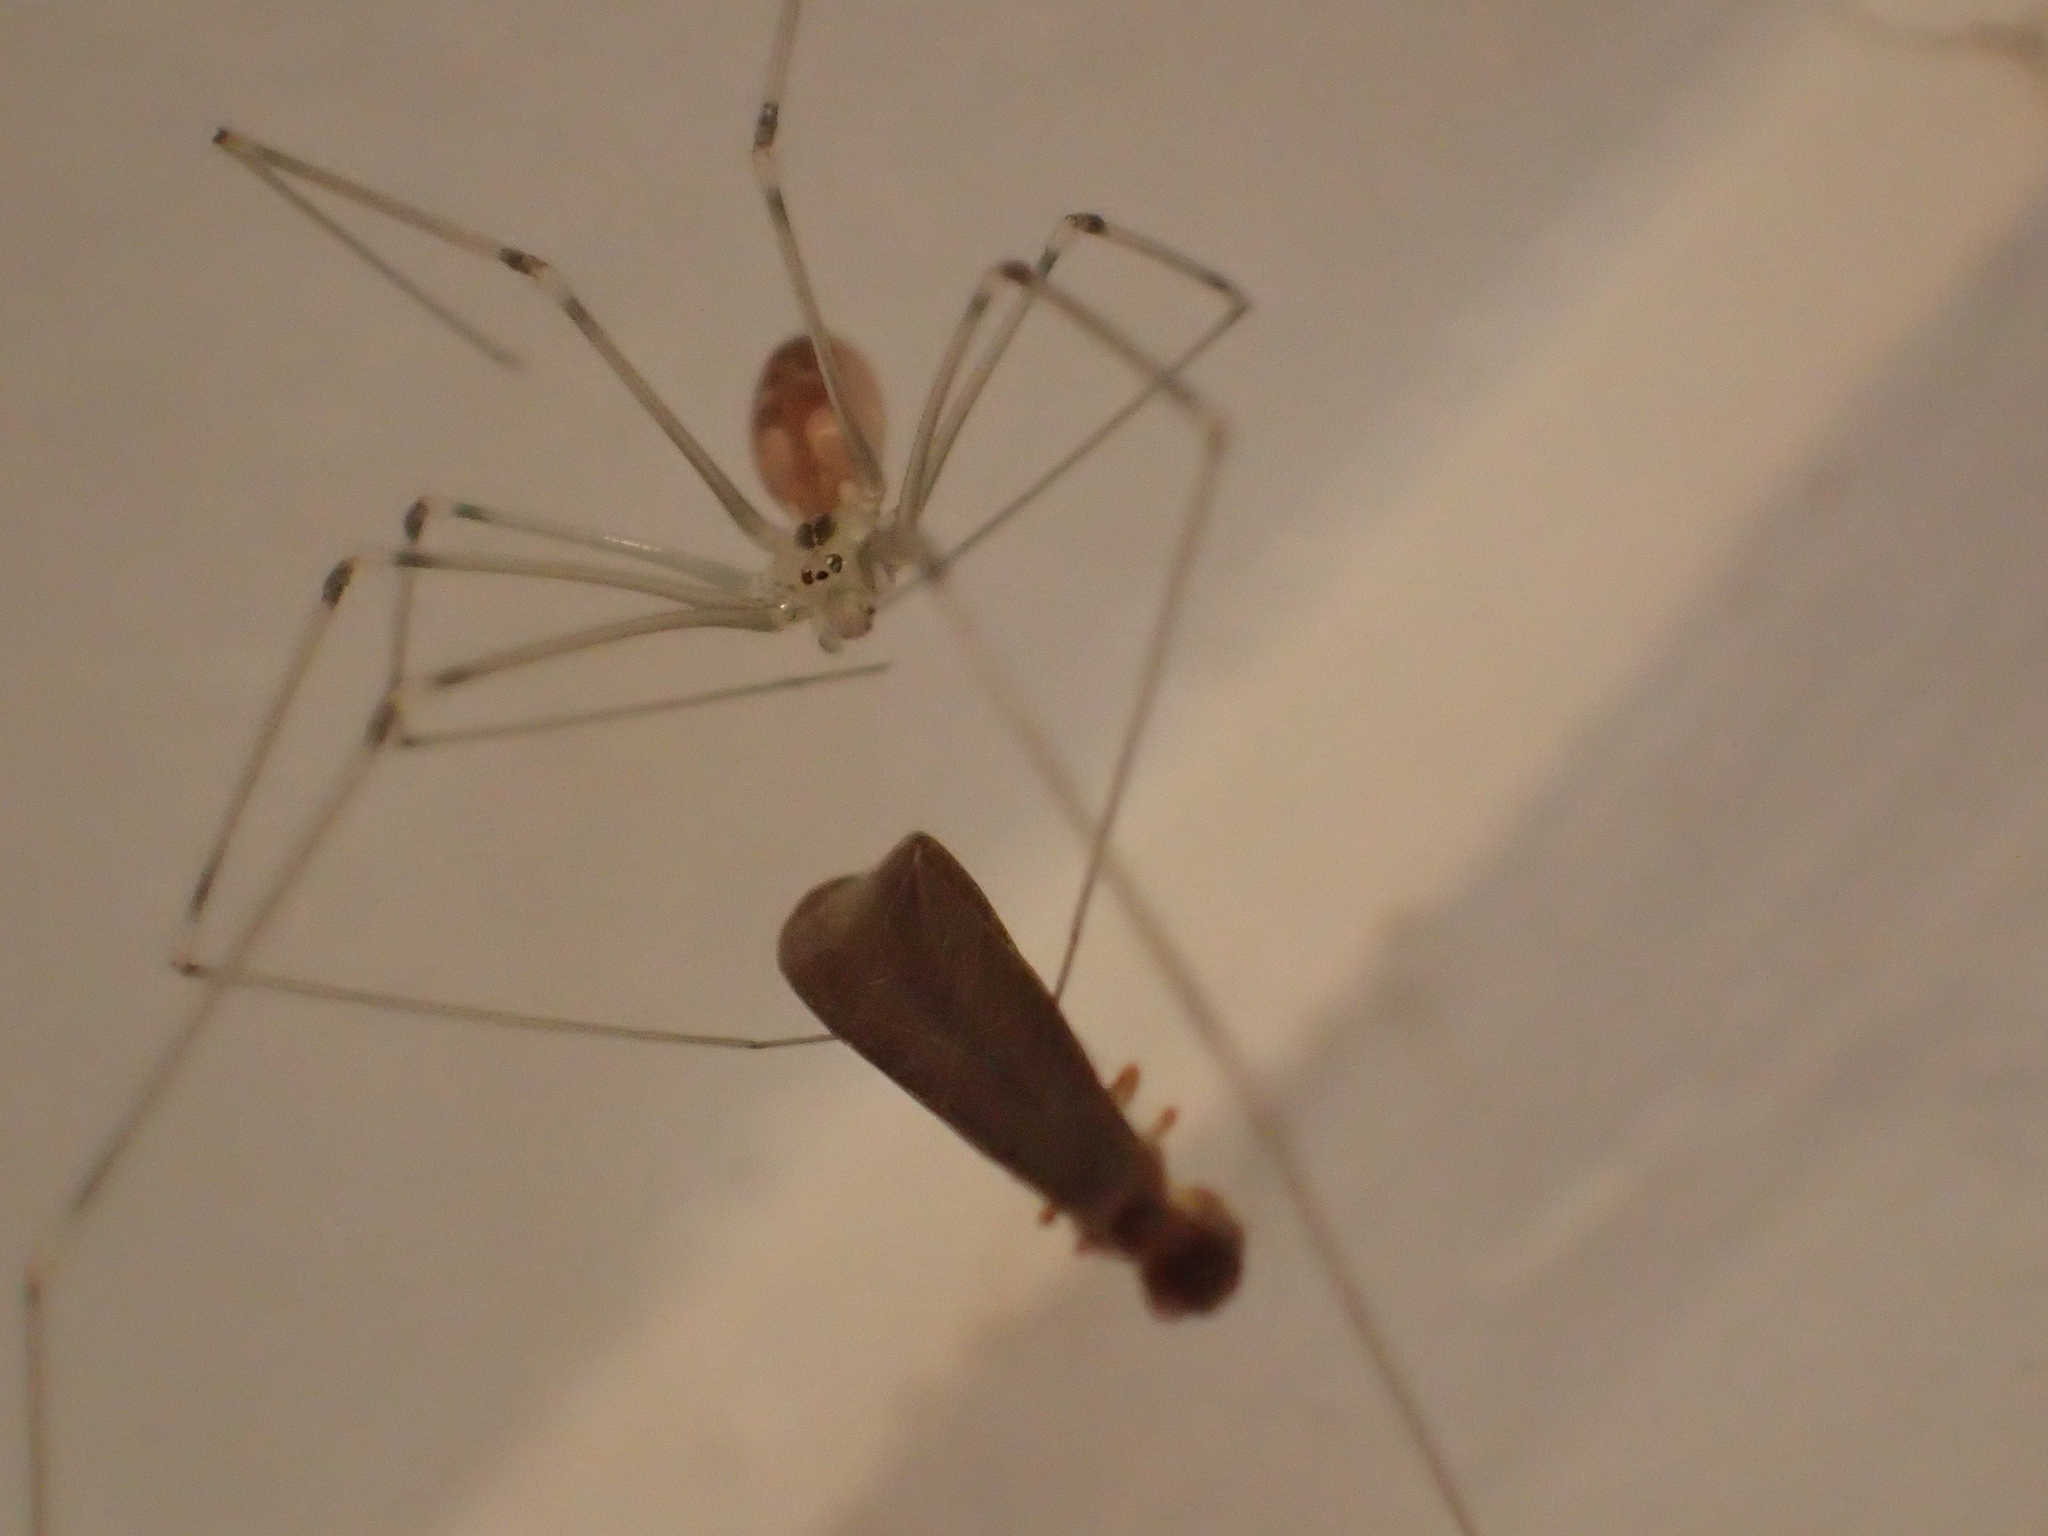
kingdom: Animalia
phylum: Arthropoda
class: Arachnida
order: Araneae
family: Pholcidae
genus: Pholcus
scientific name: Pholcus phalangioides
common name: Longbodied cellar spider
